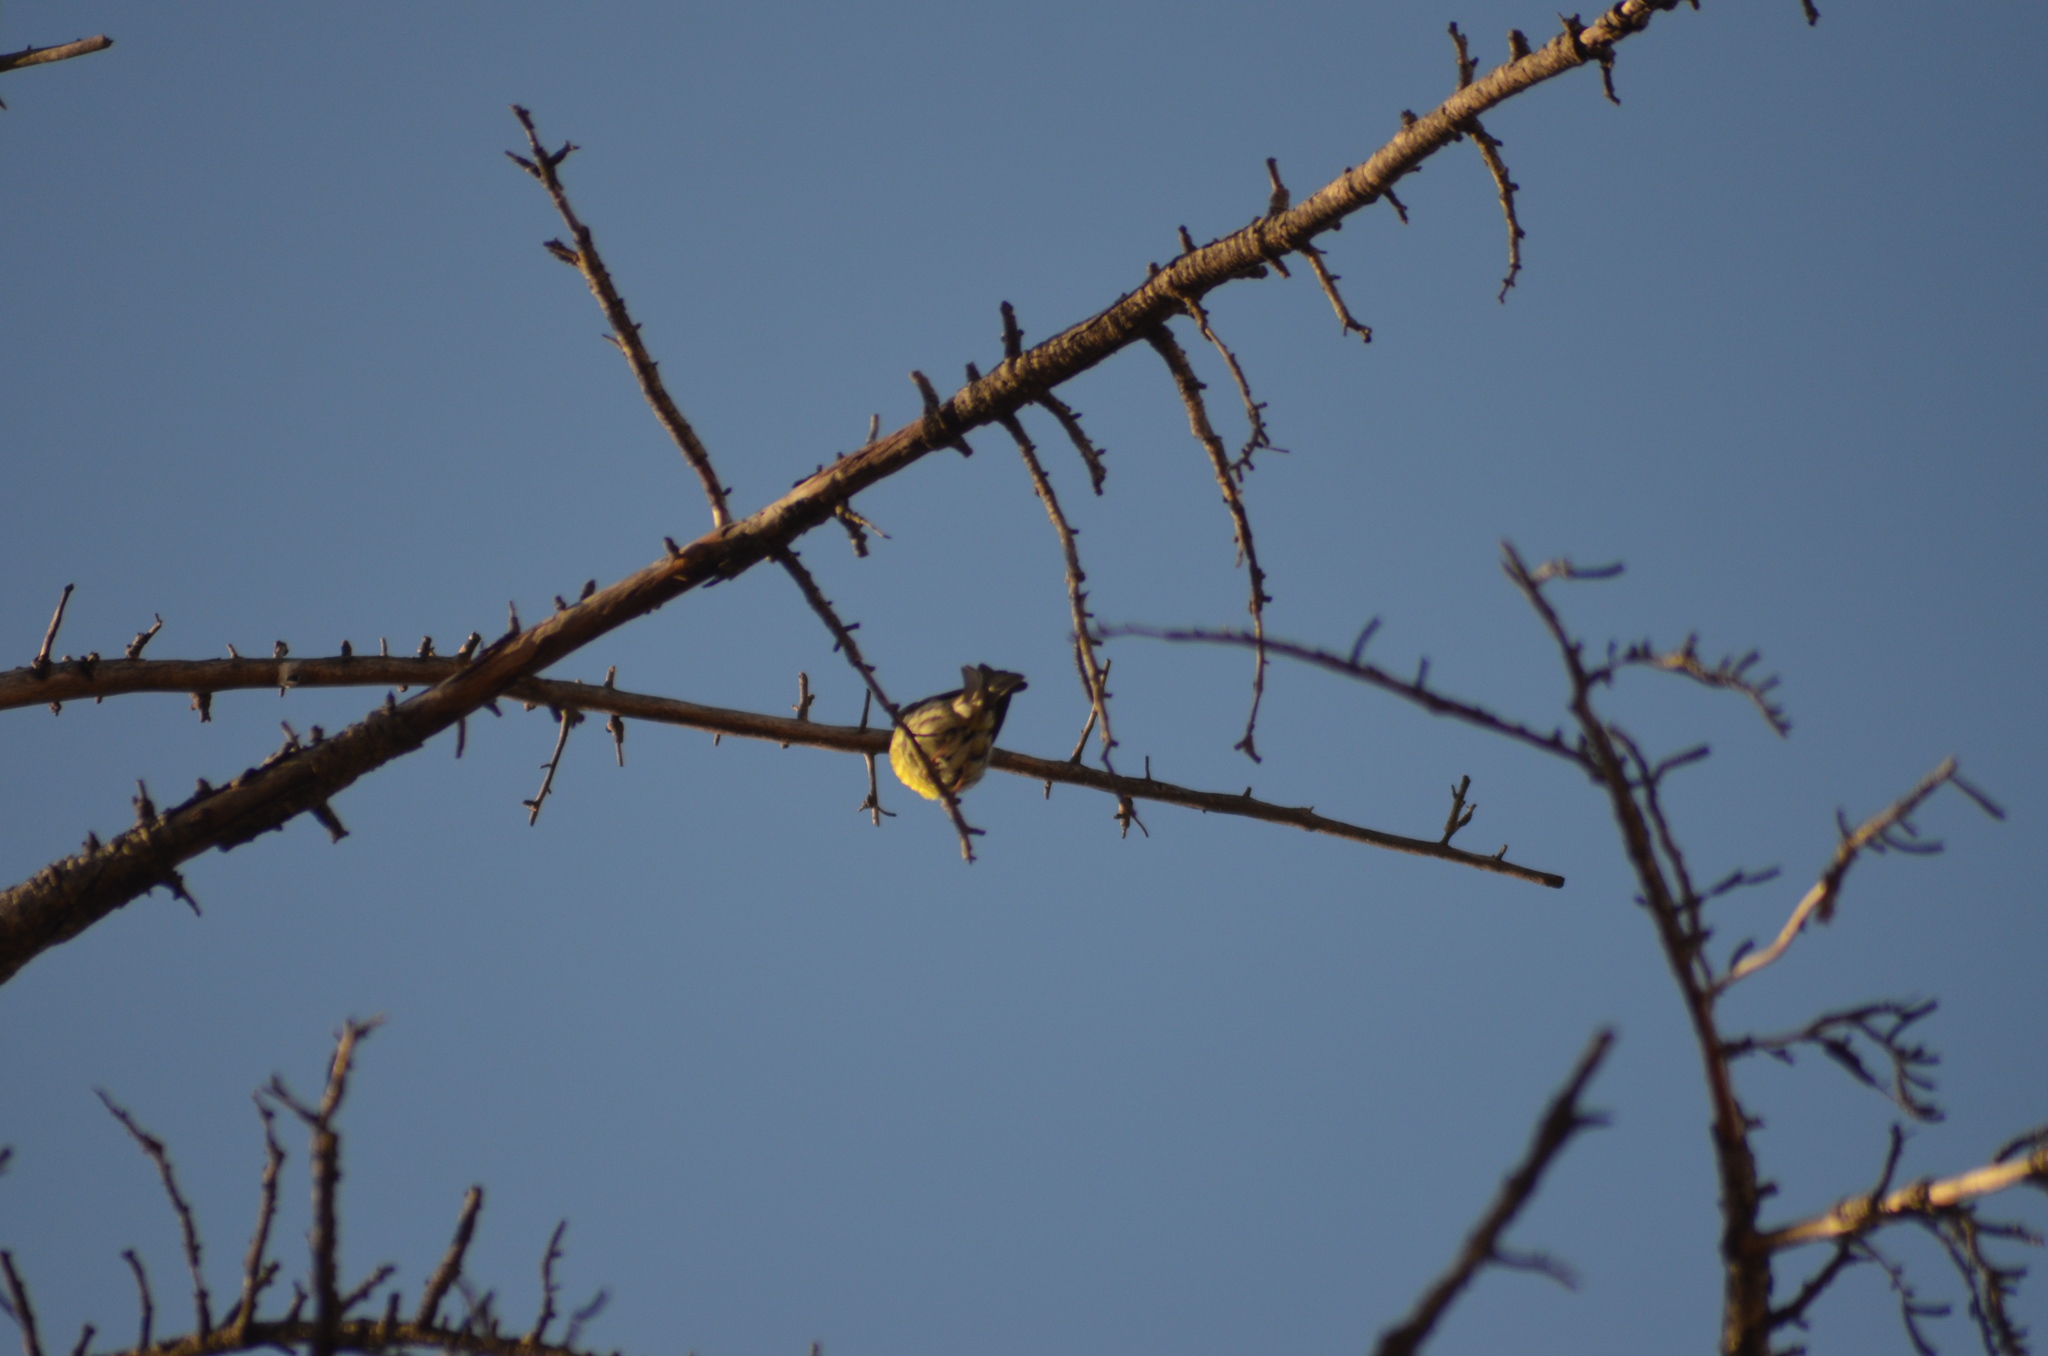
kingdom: Animalia
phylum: Chordata
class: Aves
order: Passeriformes
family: Fringillidae
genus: Serinus
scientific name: Serinus serinus
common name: European serin
